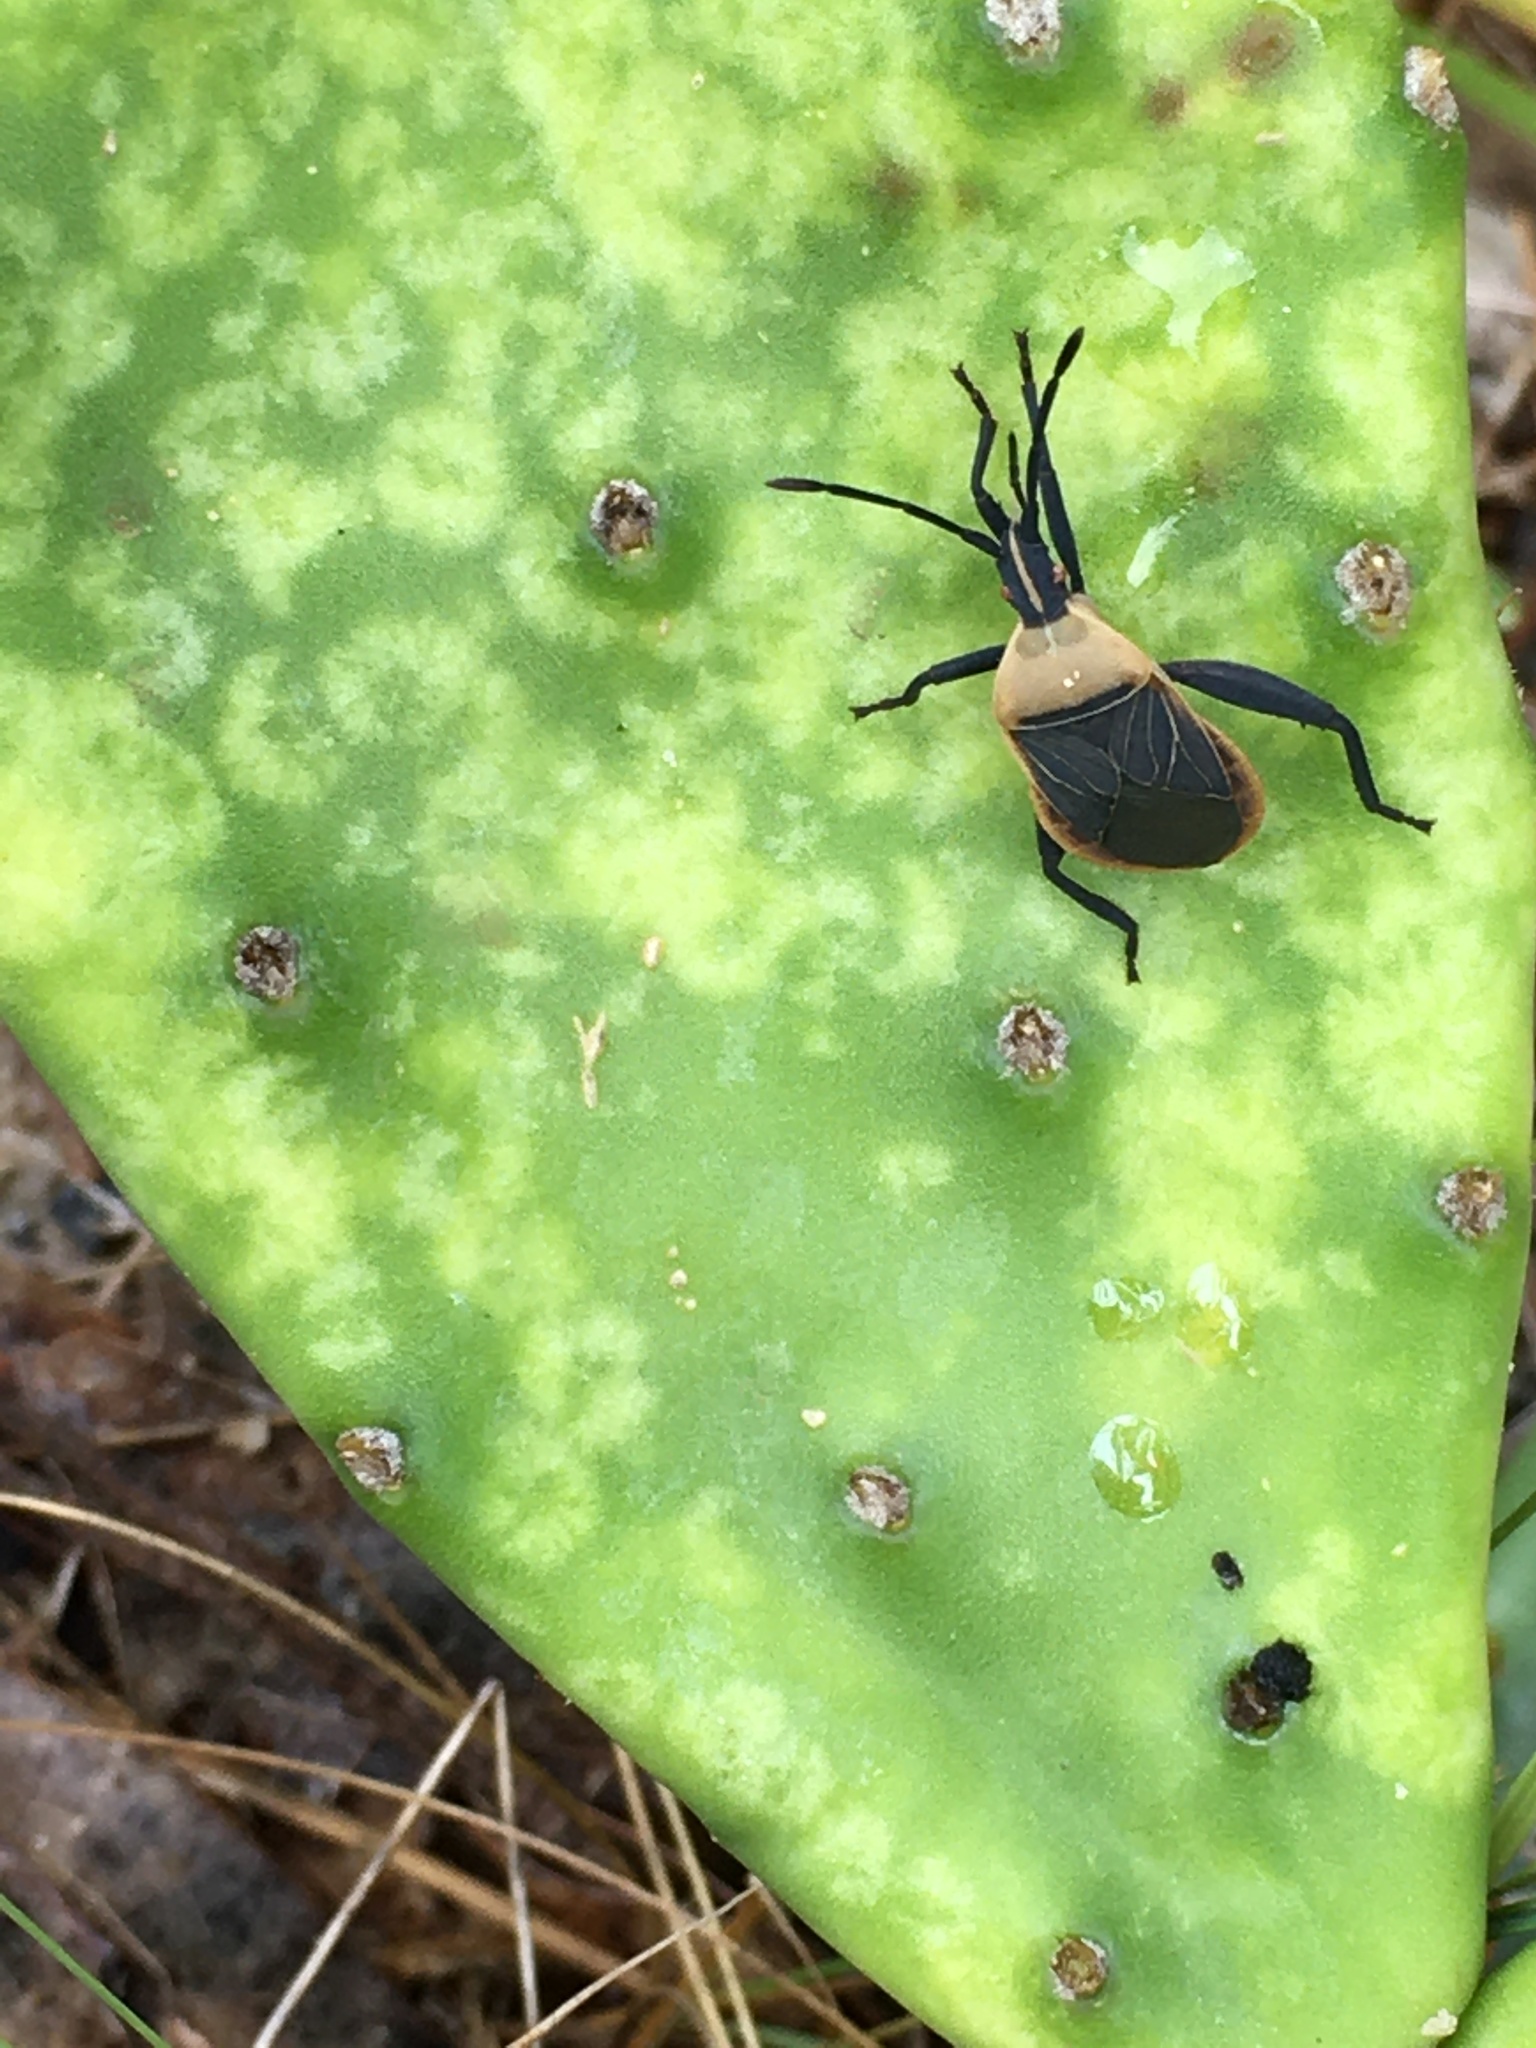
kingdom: Animalia
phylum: Arthropoda
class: Insecta
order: Hemiptera
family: Coreidae
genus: Chelinidea
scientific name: Chelinidea vittiger
